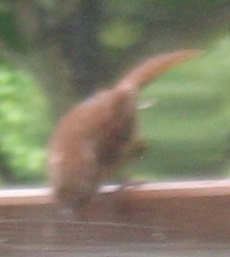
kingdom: Animalia
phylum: Chordata
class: Aves
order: Passeriformes
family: Troglodytidae
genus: Thryothorus
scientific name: Thryothorus ludovicianus
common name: Carolina wren
